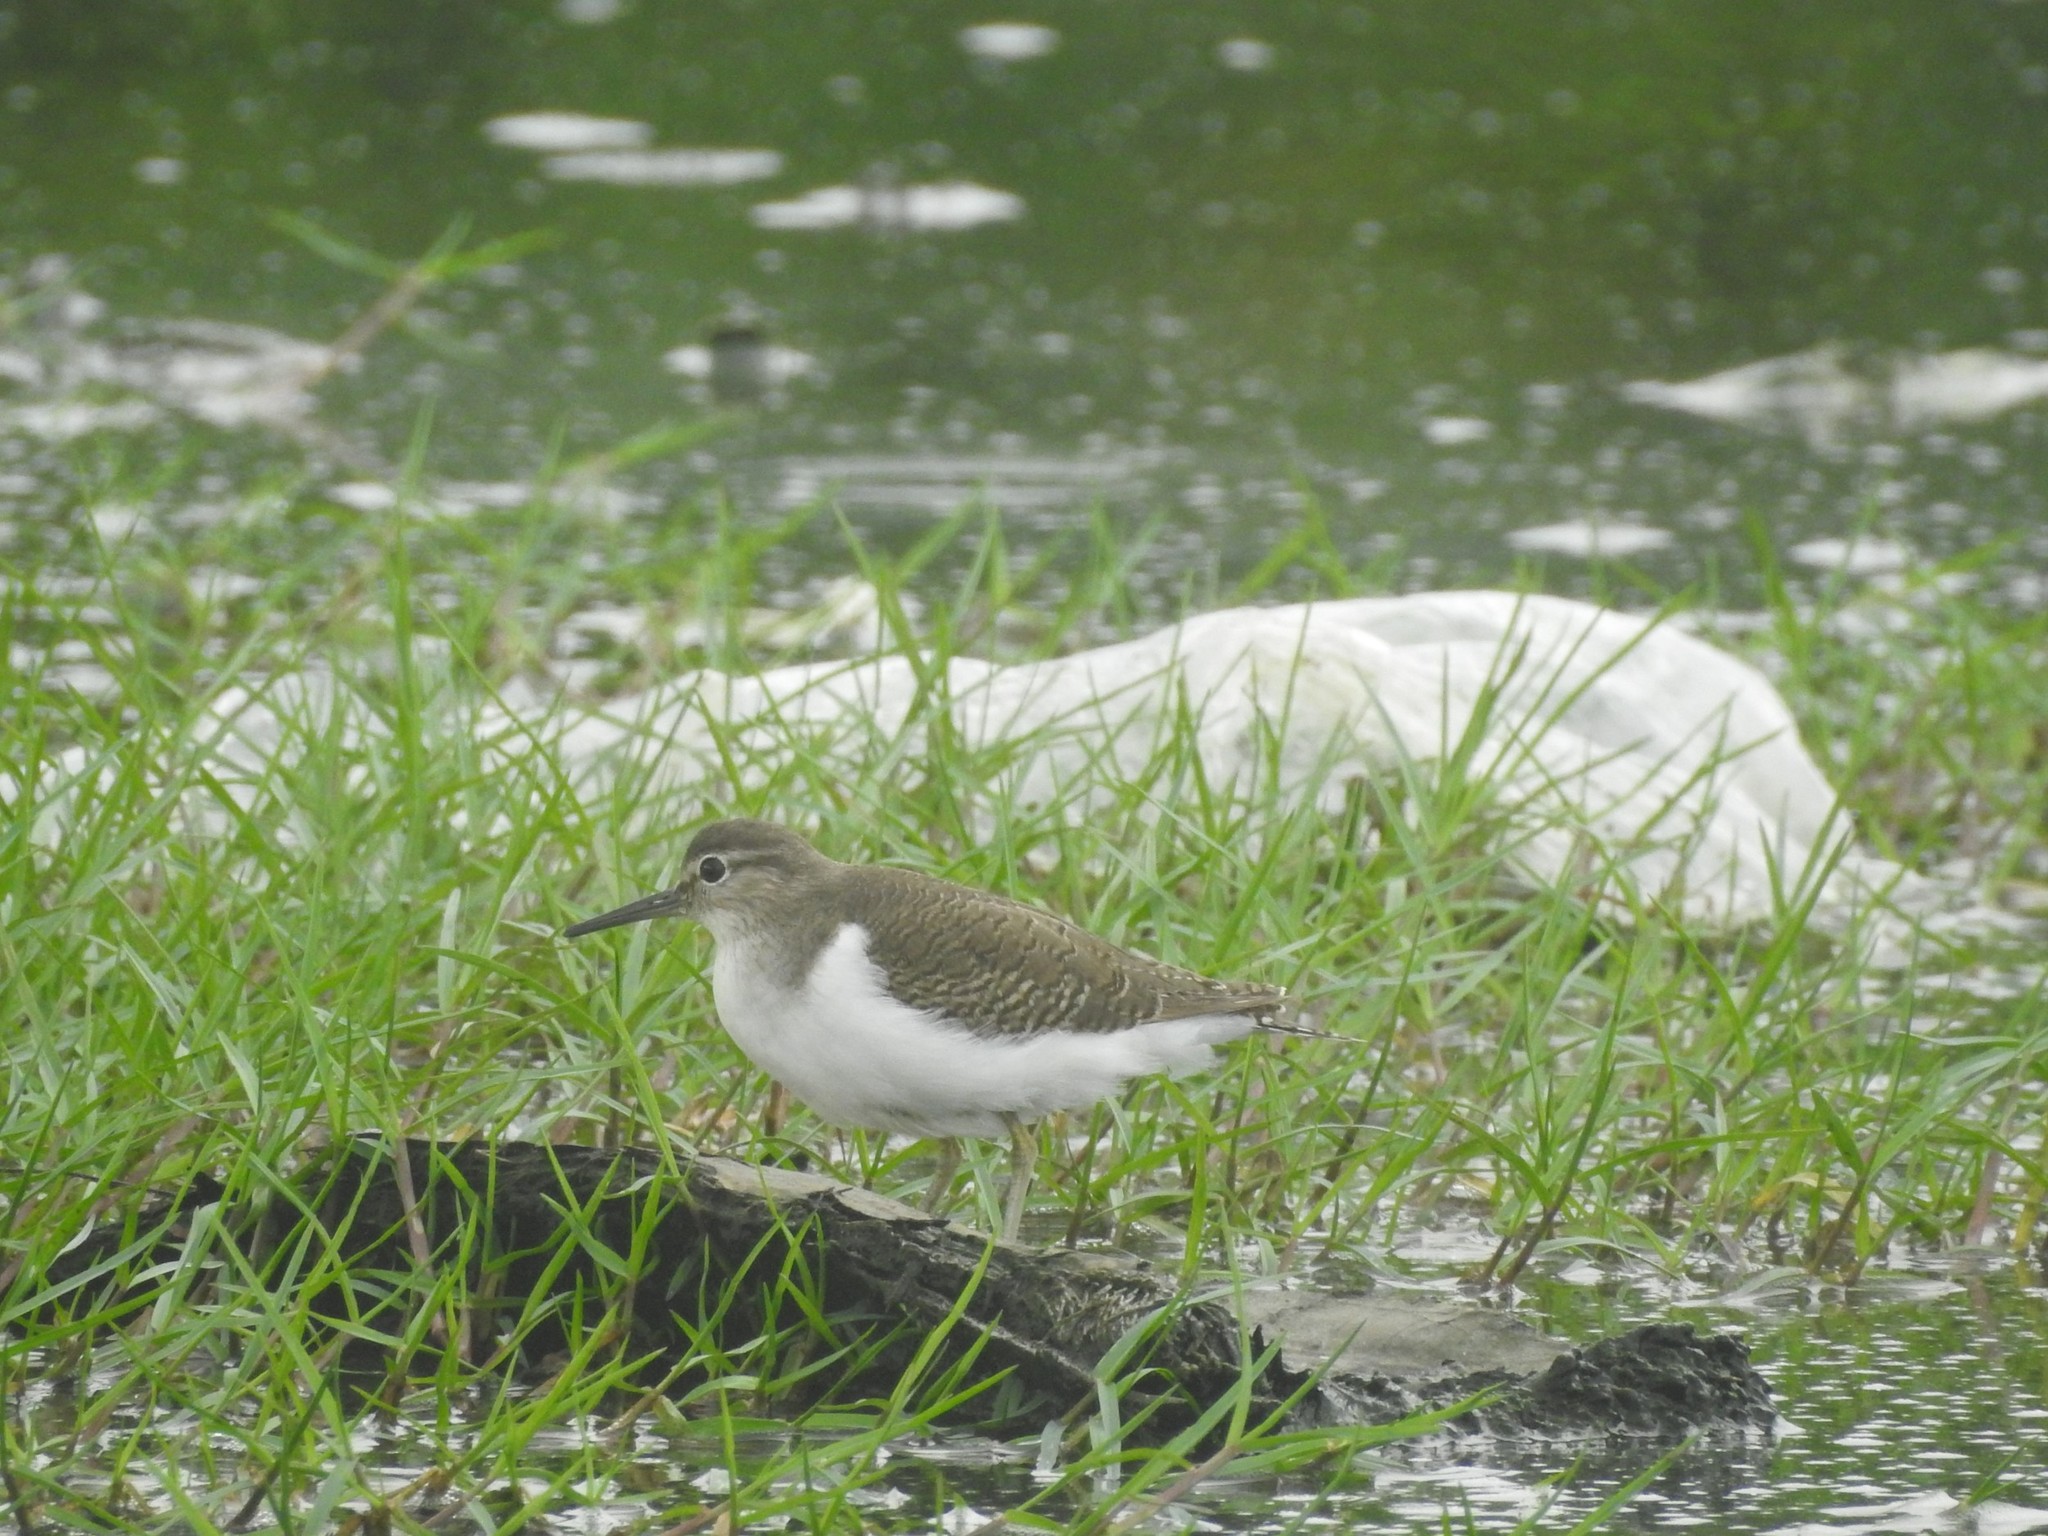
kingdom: Animalia
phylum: Chordata
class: Aves
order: Charadriiformes
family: Scolopacidae
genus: Actitis
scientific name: Actitis hypoleucos
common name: Common sandpiper
